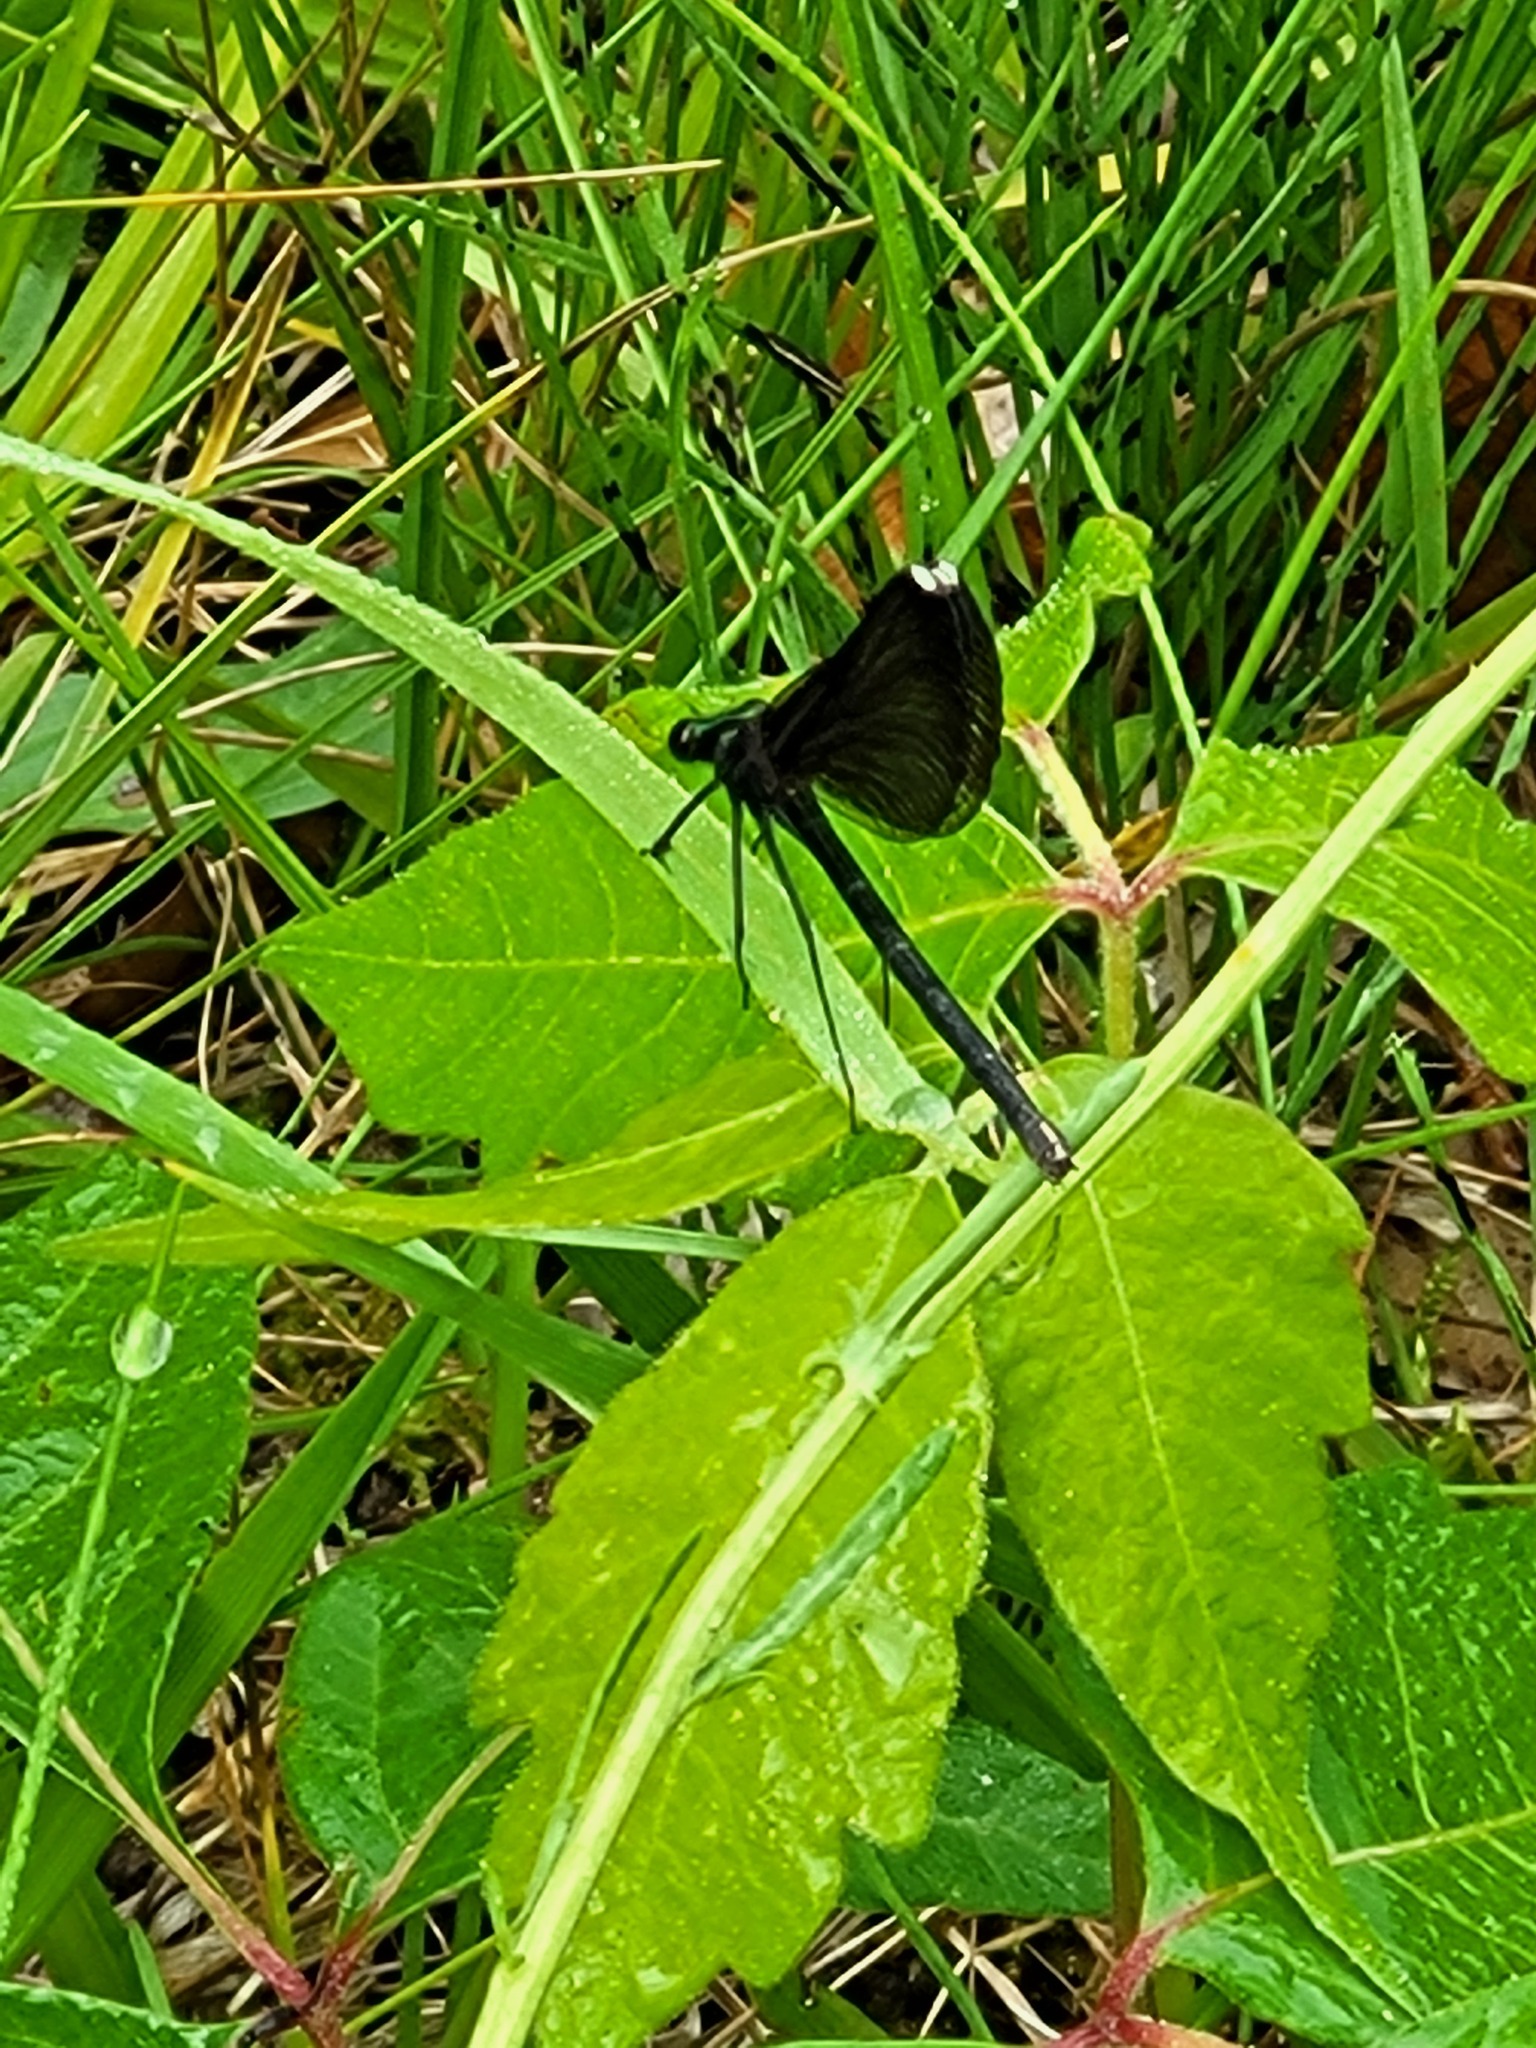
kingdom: Animalia
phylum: Arthropoda
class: Insecta
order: Odonata
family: Calopterygidae
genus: Calopteryx
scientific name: Calopteryx maculata
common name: Ebony jewelwing
